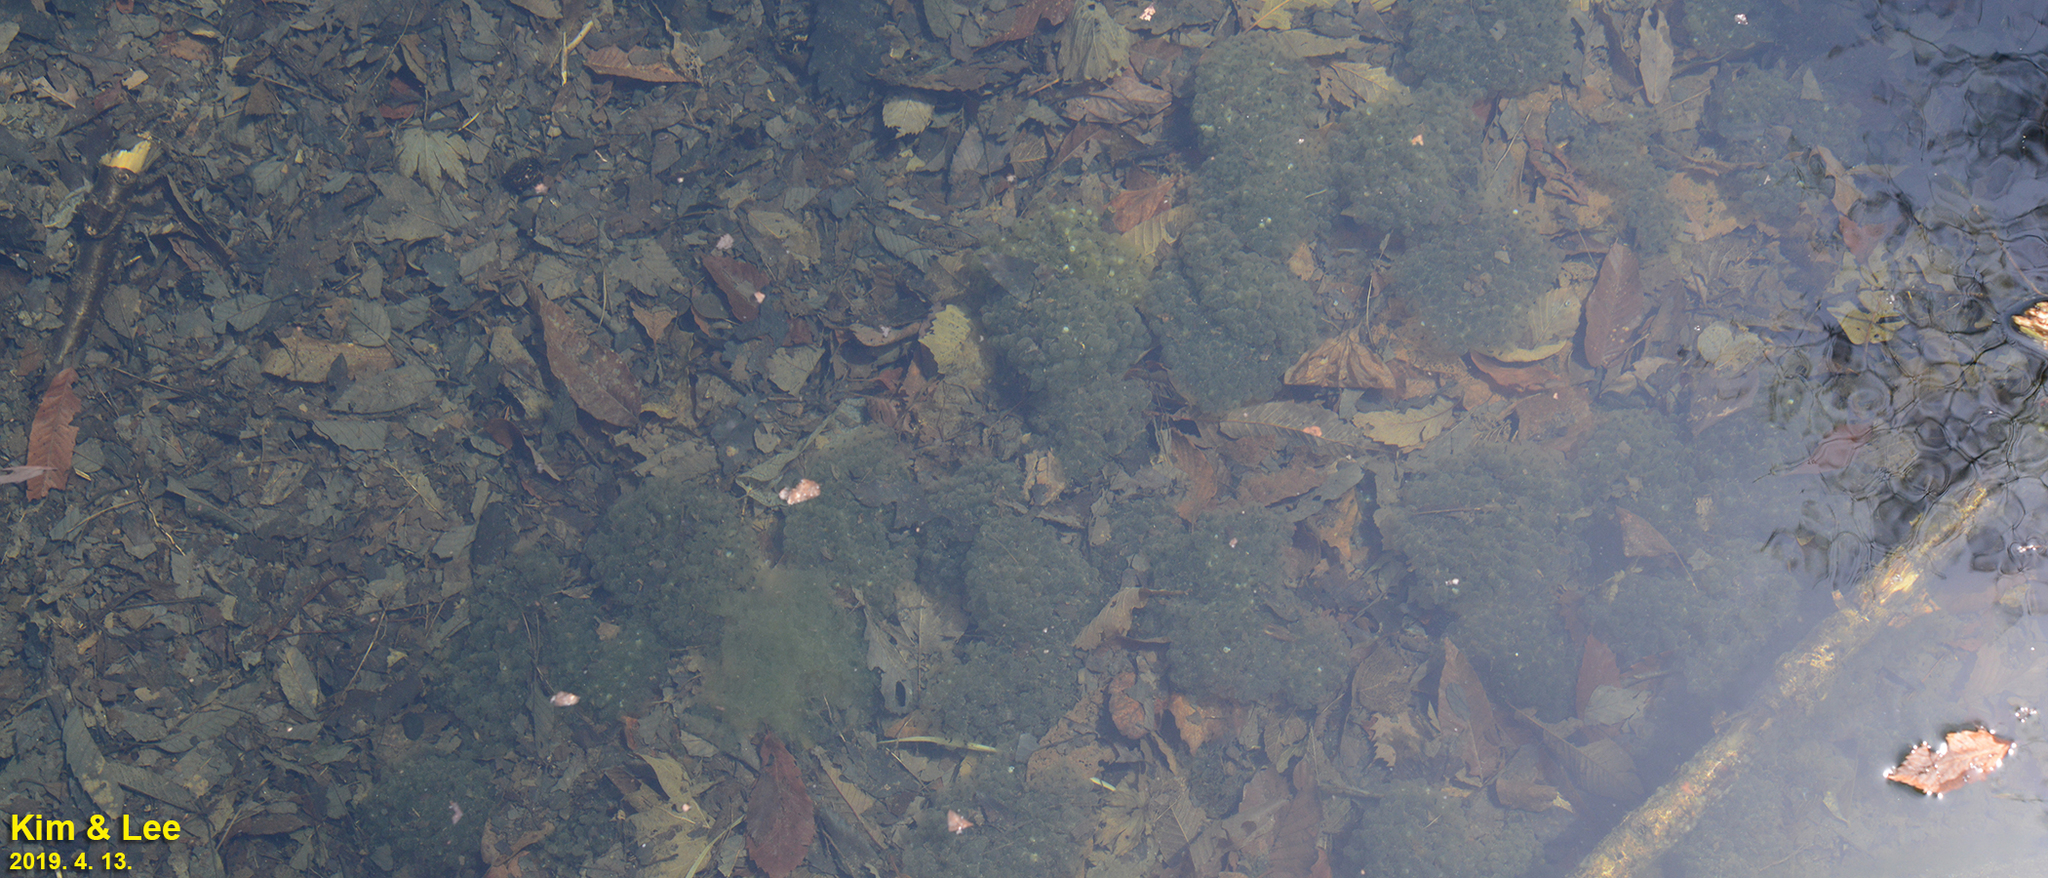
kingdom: Animalia
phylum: Chordata
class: Amphibia
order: Anura
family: Ranidae
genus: Rana
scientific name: Rana huanrenensis
